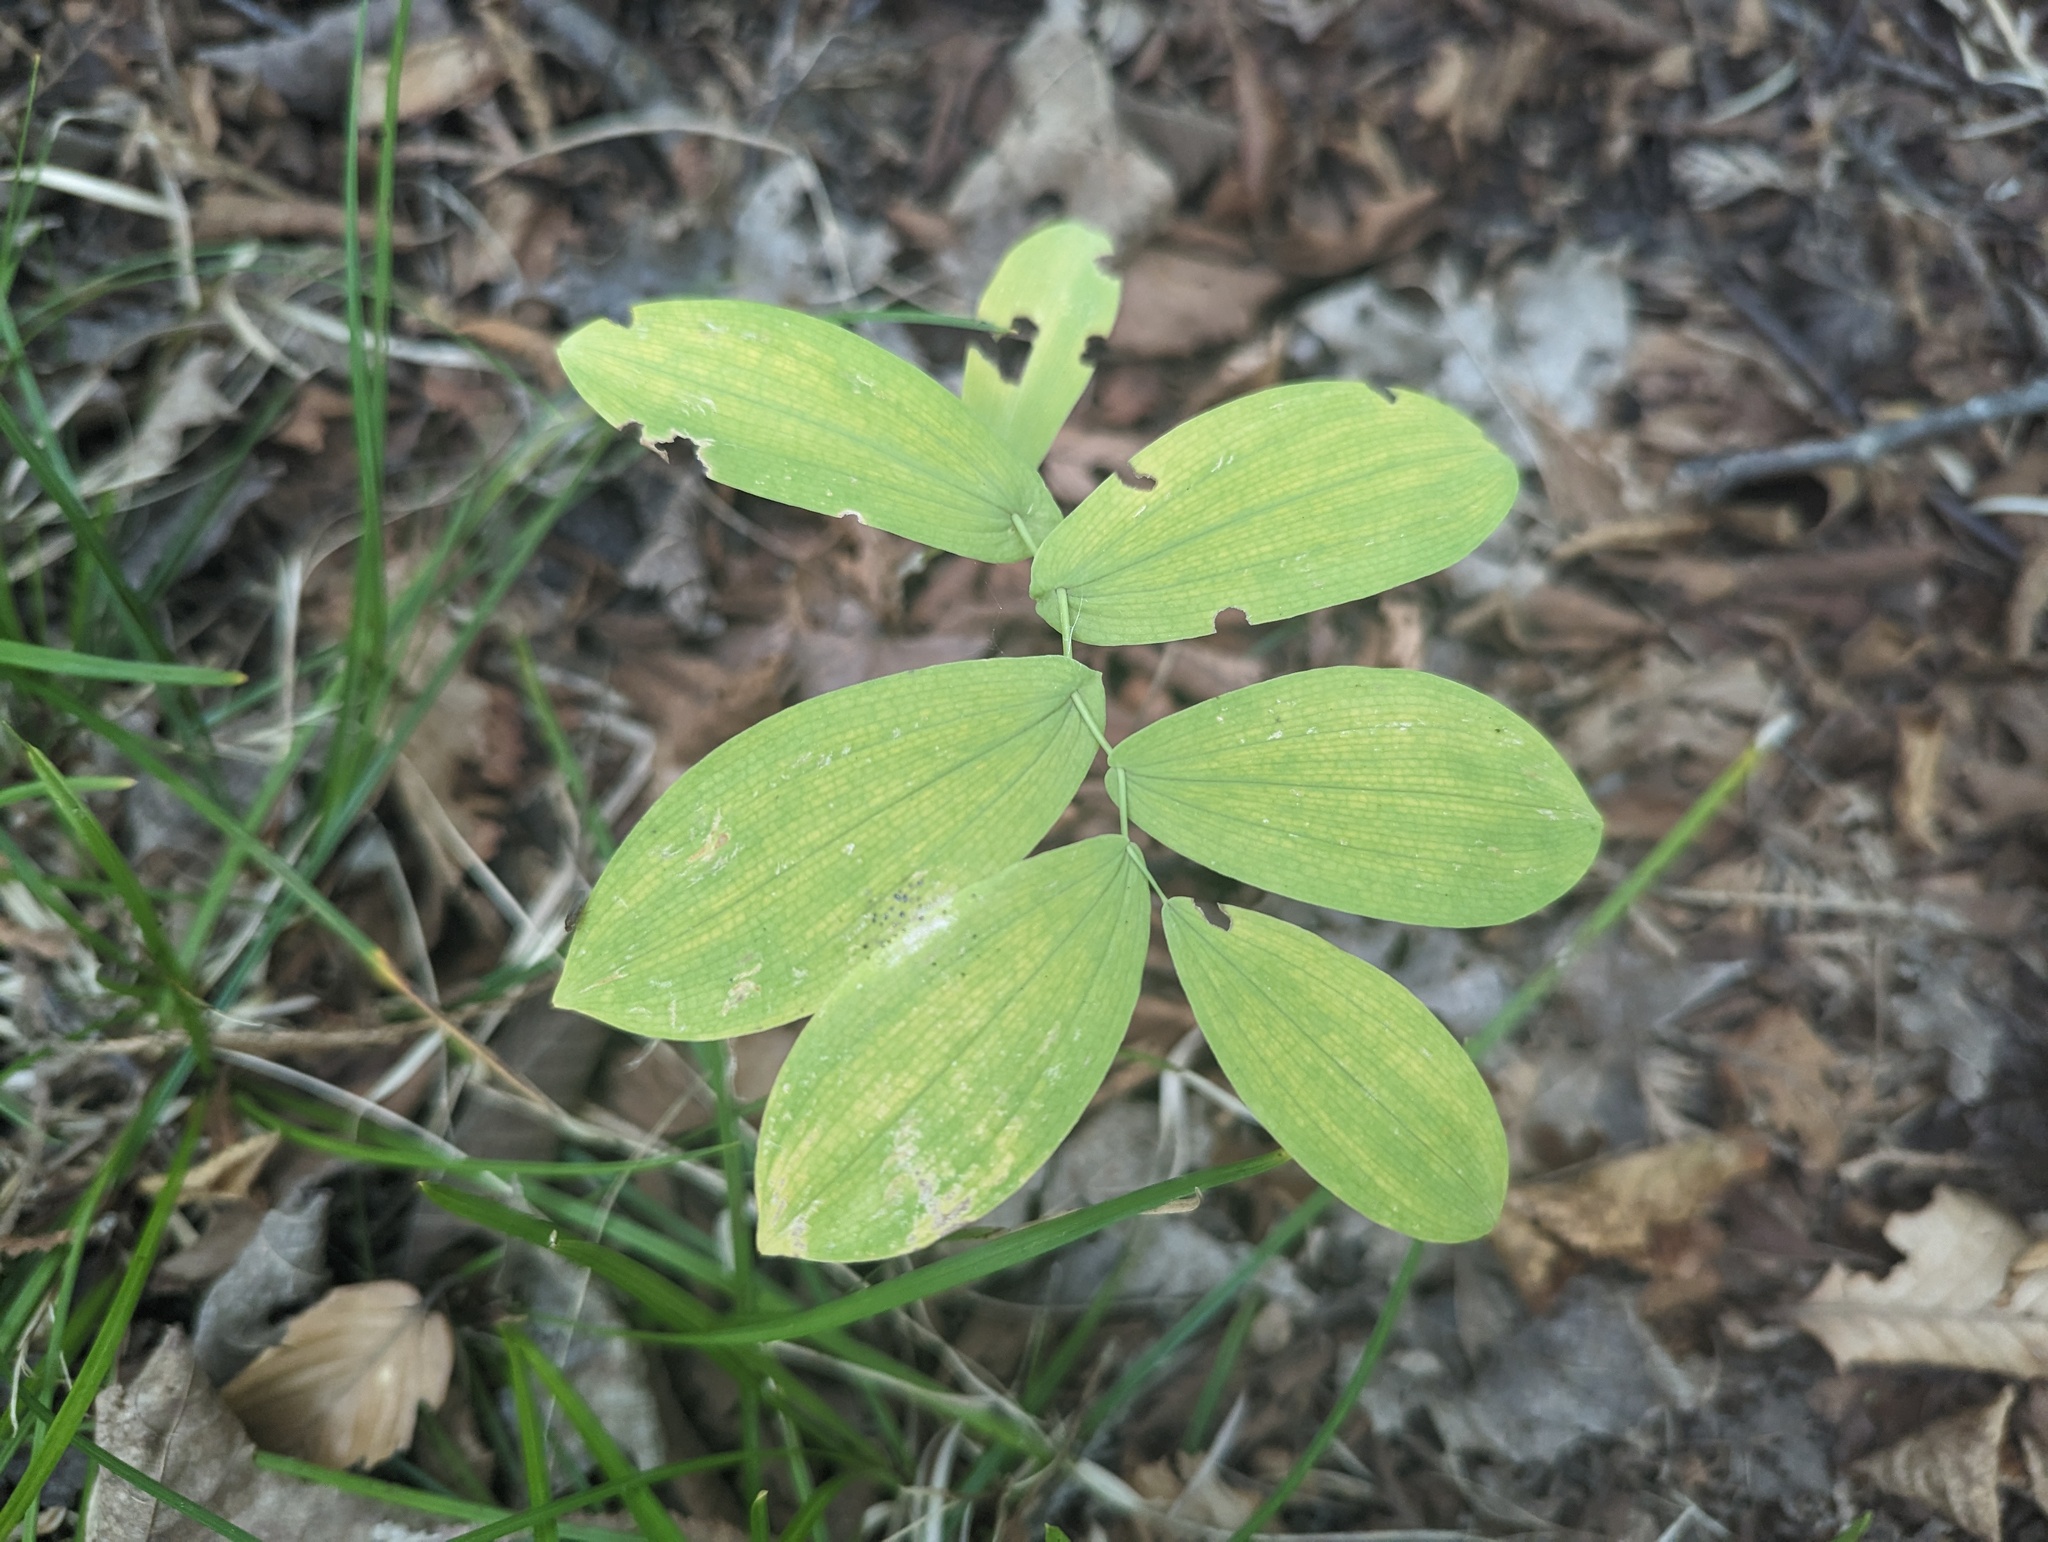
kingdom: Plantae
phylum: Tracheophyta
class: Liliopsida
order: Liliales
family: Colchicaceae
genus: Uvularia
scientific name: Uvularia grandiflora
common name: Bellwort
